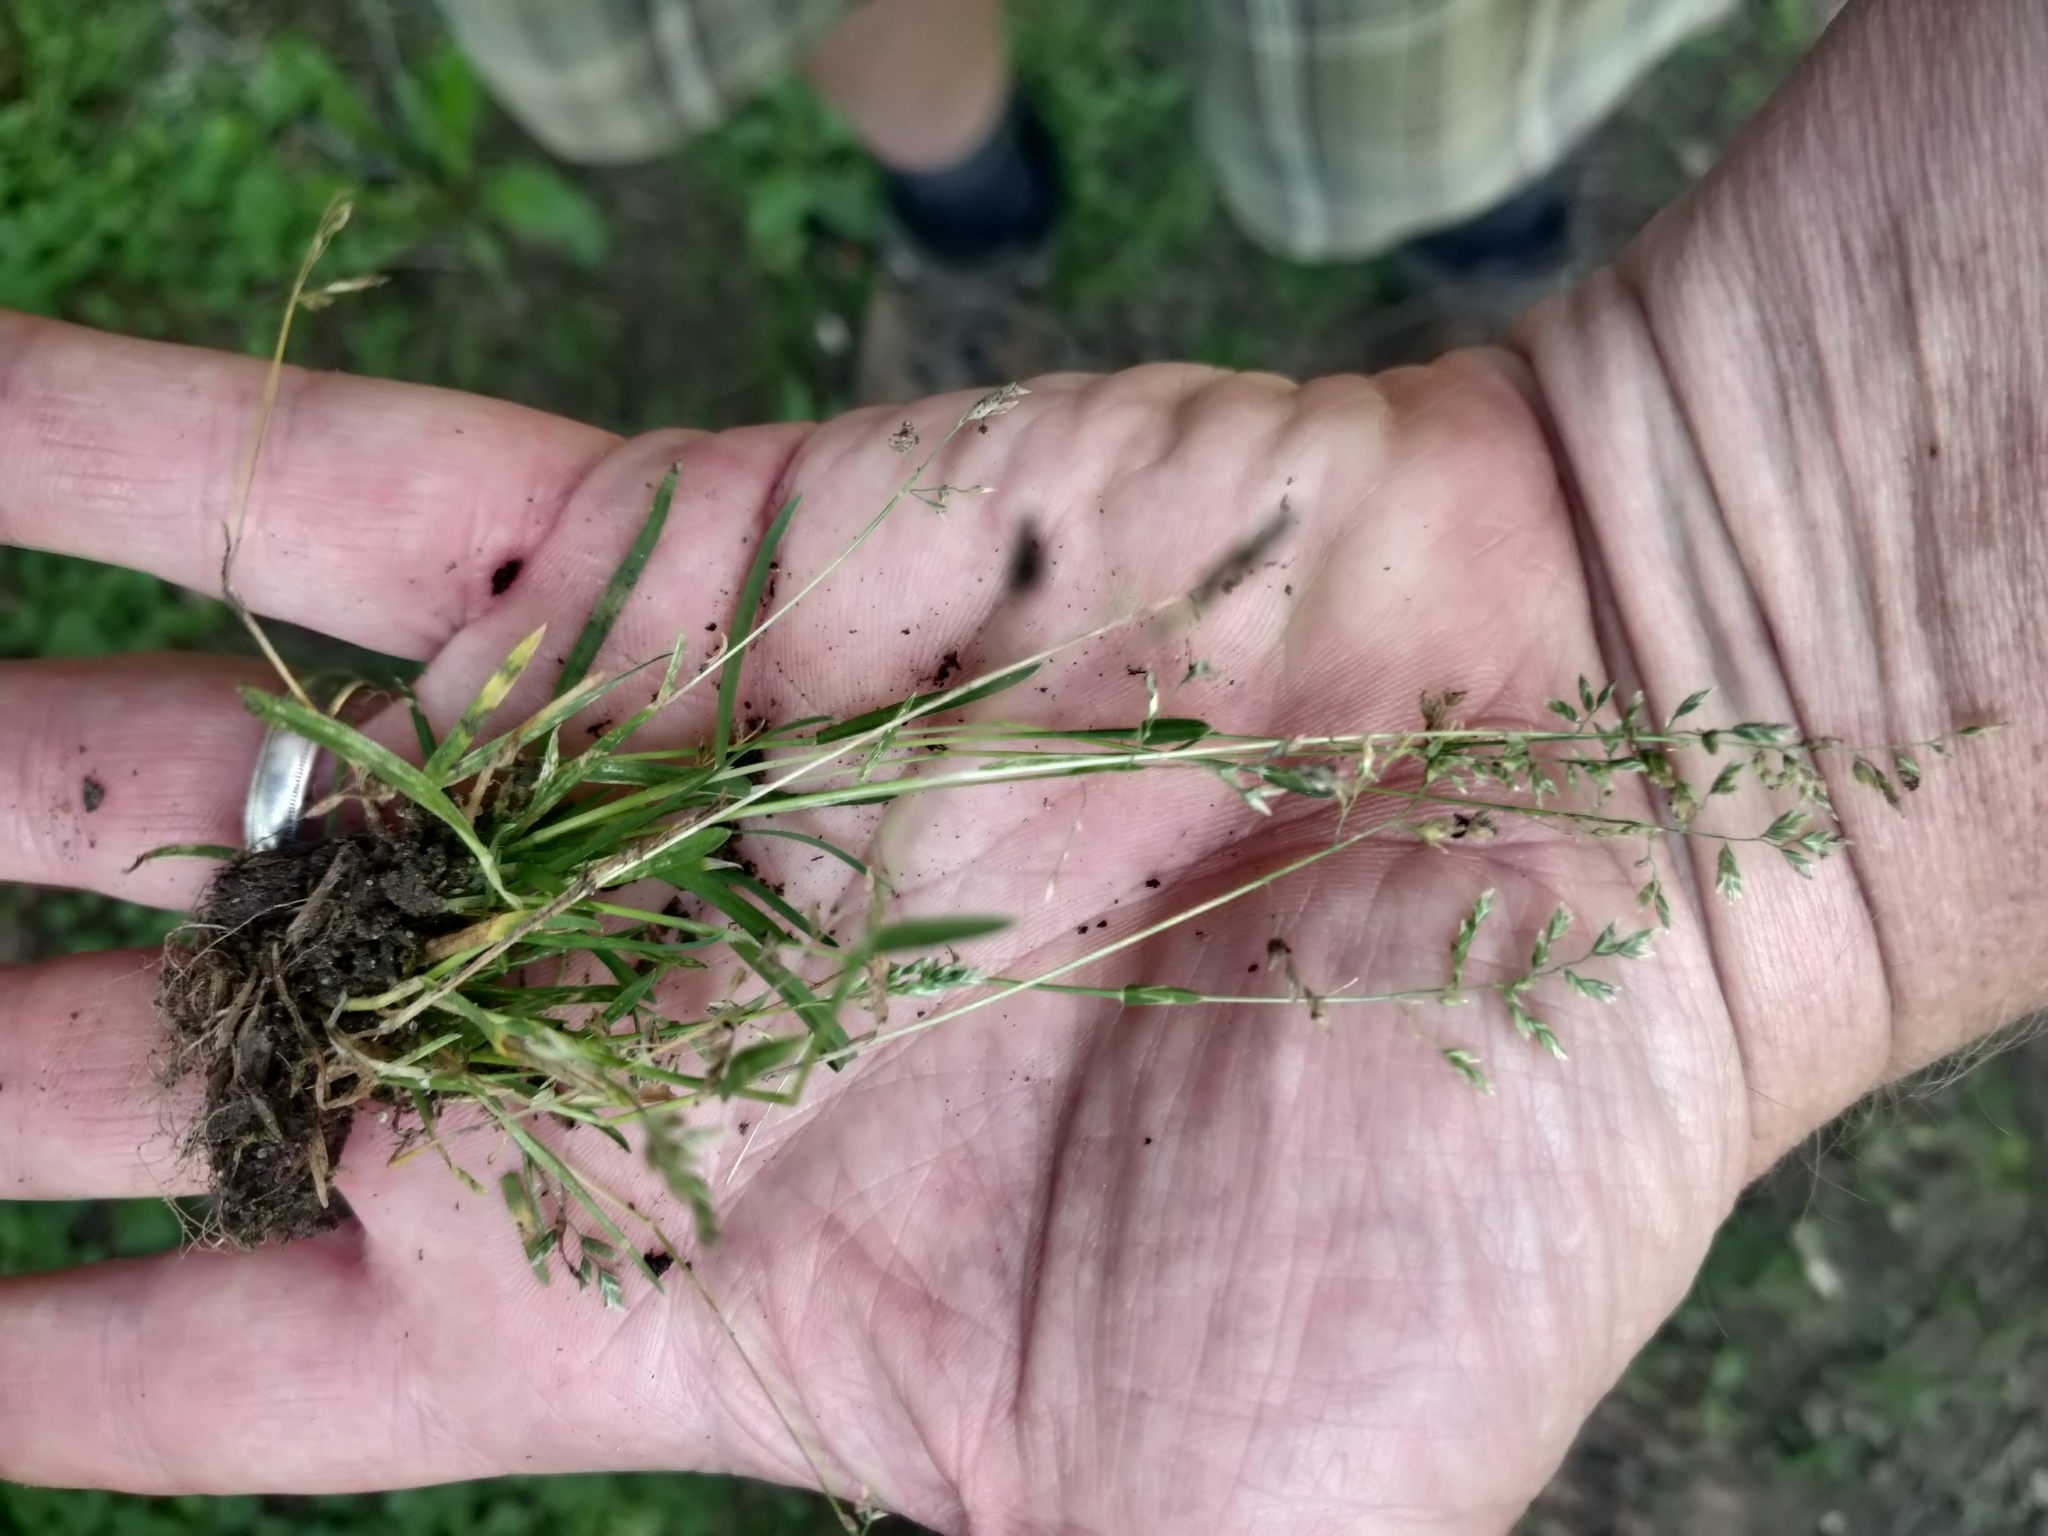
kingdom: Plantae
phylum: Tracheophyta
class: Liliopsida
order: Poales
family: Poaceae
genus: Poa
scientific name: Poa annua
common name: Annual bluegrass
